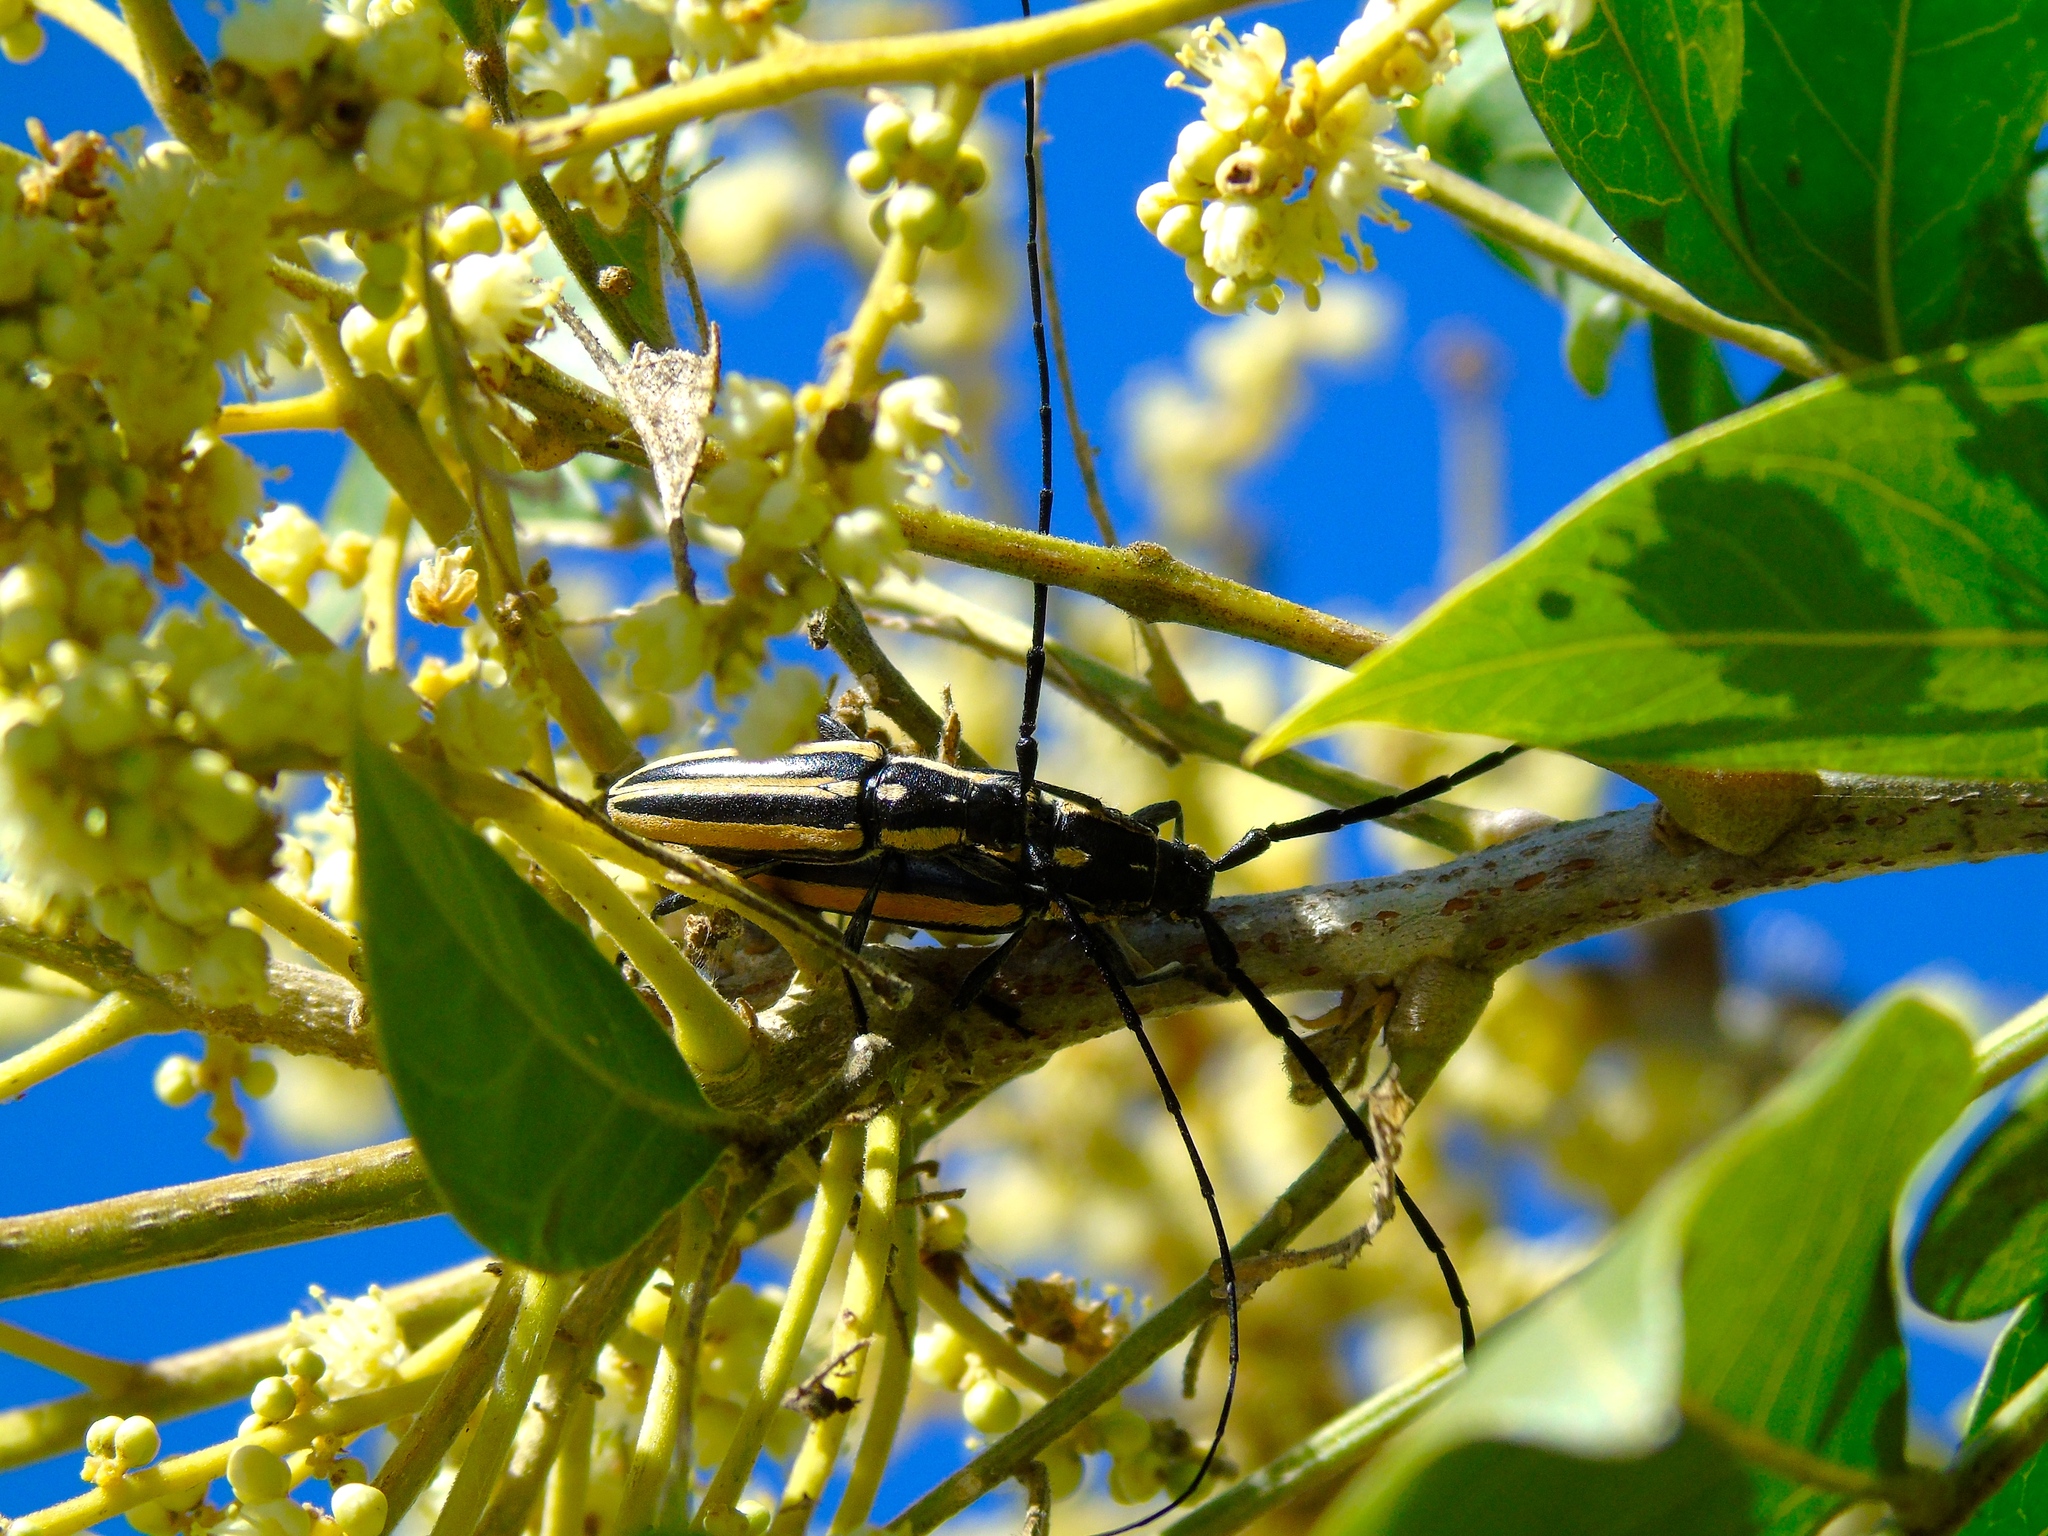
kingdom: Animalia
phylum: Arthropoda
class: Insecta
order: Coleoptera
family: Cerambycidae
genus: Sphaenothecus
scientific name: Sphaenothecus trilineatus
